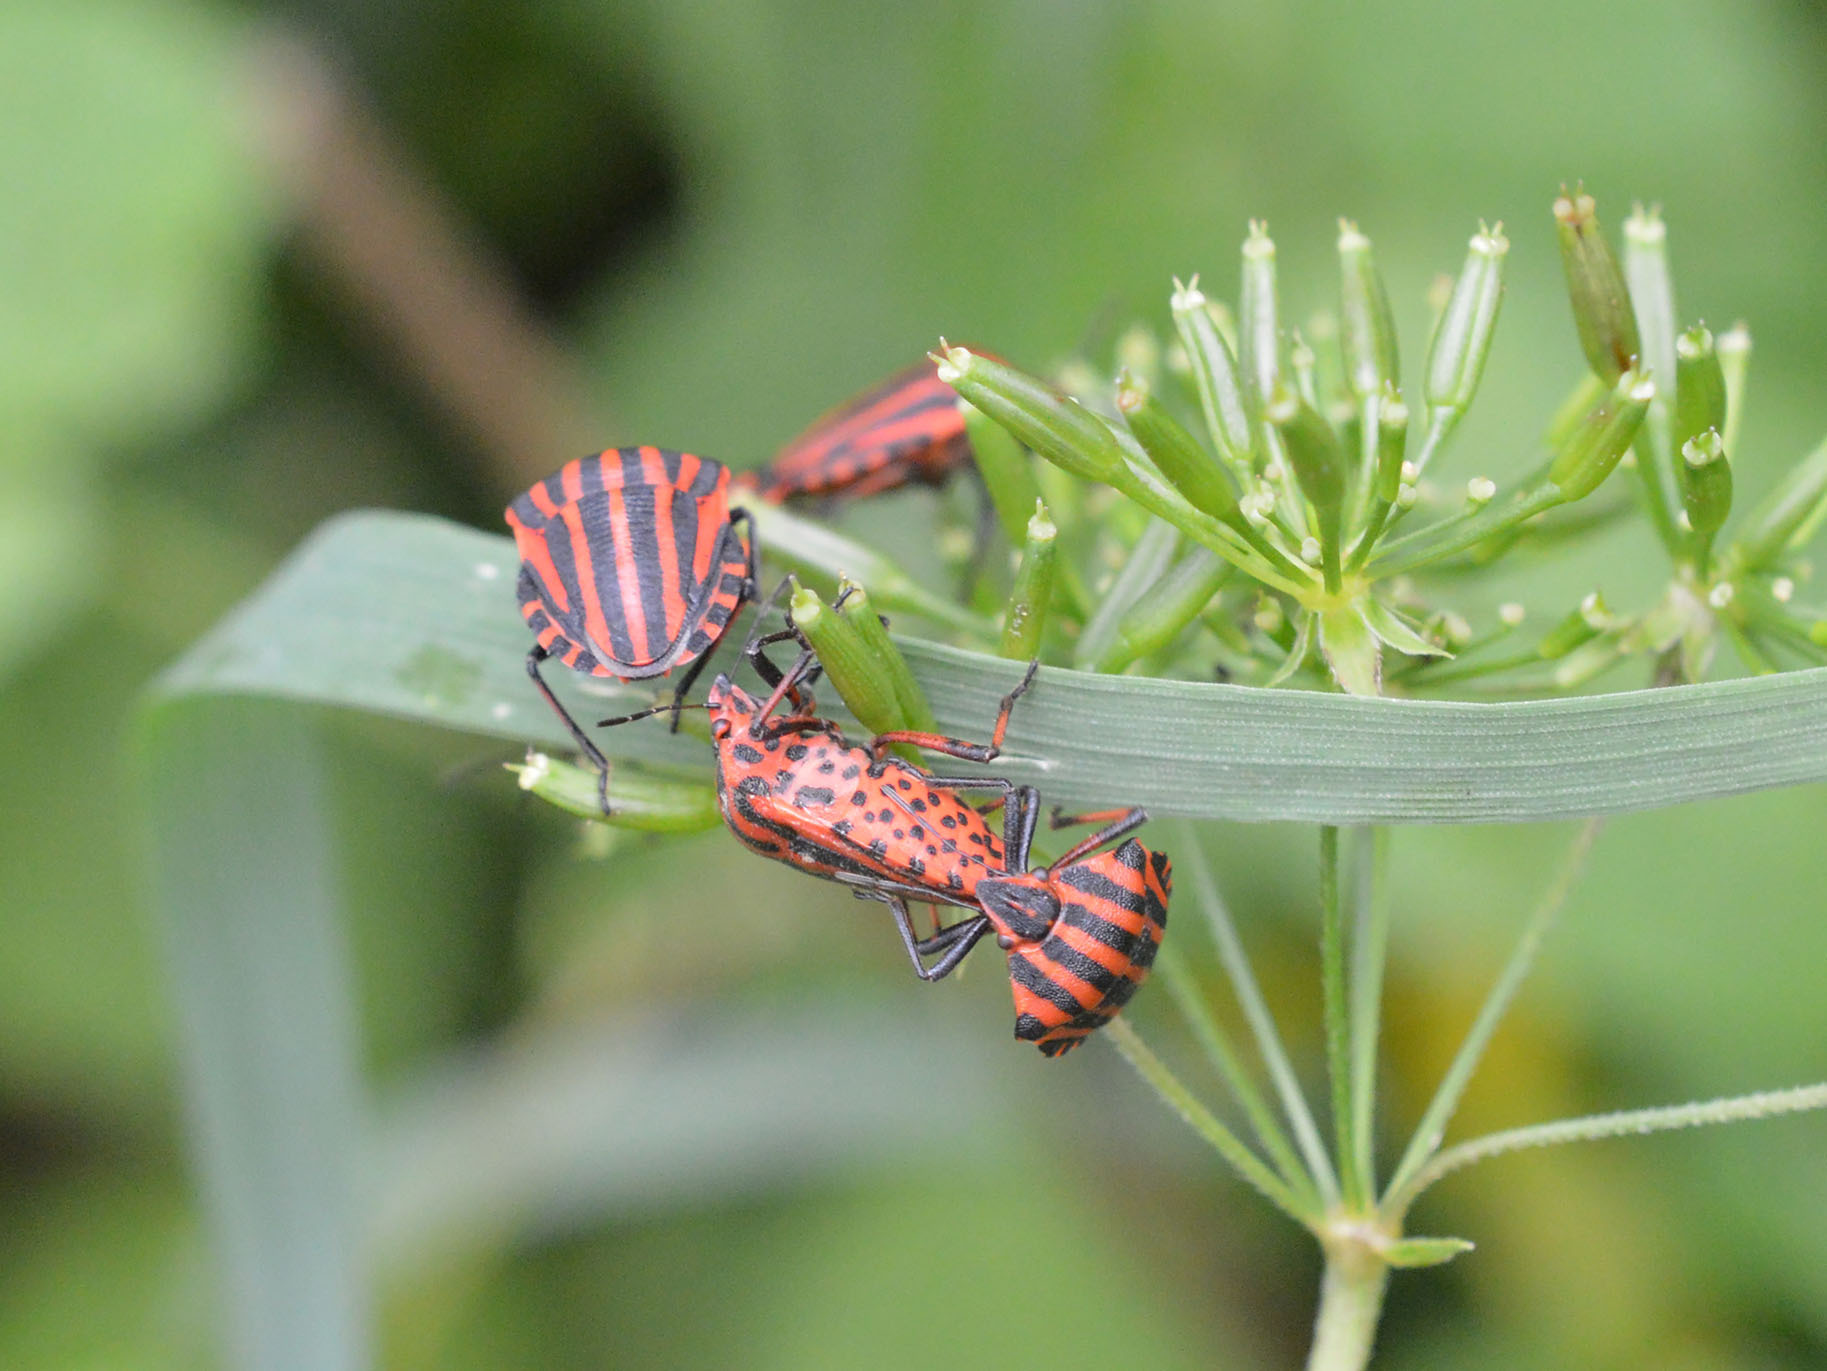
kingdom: Animalia
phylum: Arthropoda
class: Insecta
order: Hemiptera
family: Pentatomidae
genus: Graphosoma
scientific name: Graphosoma italicum
